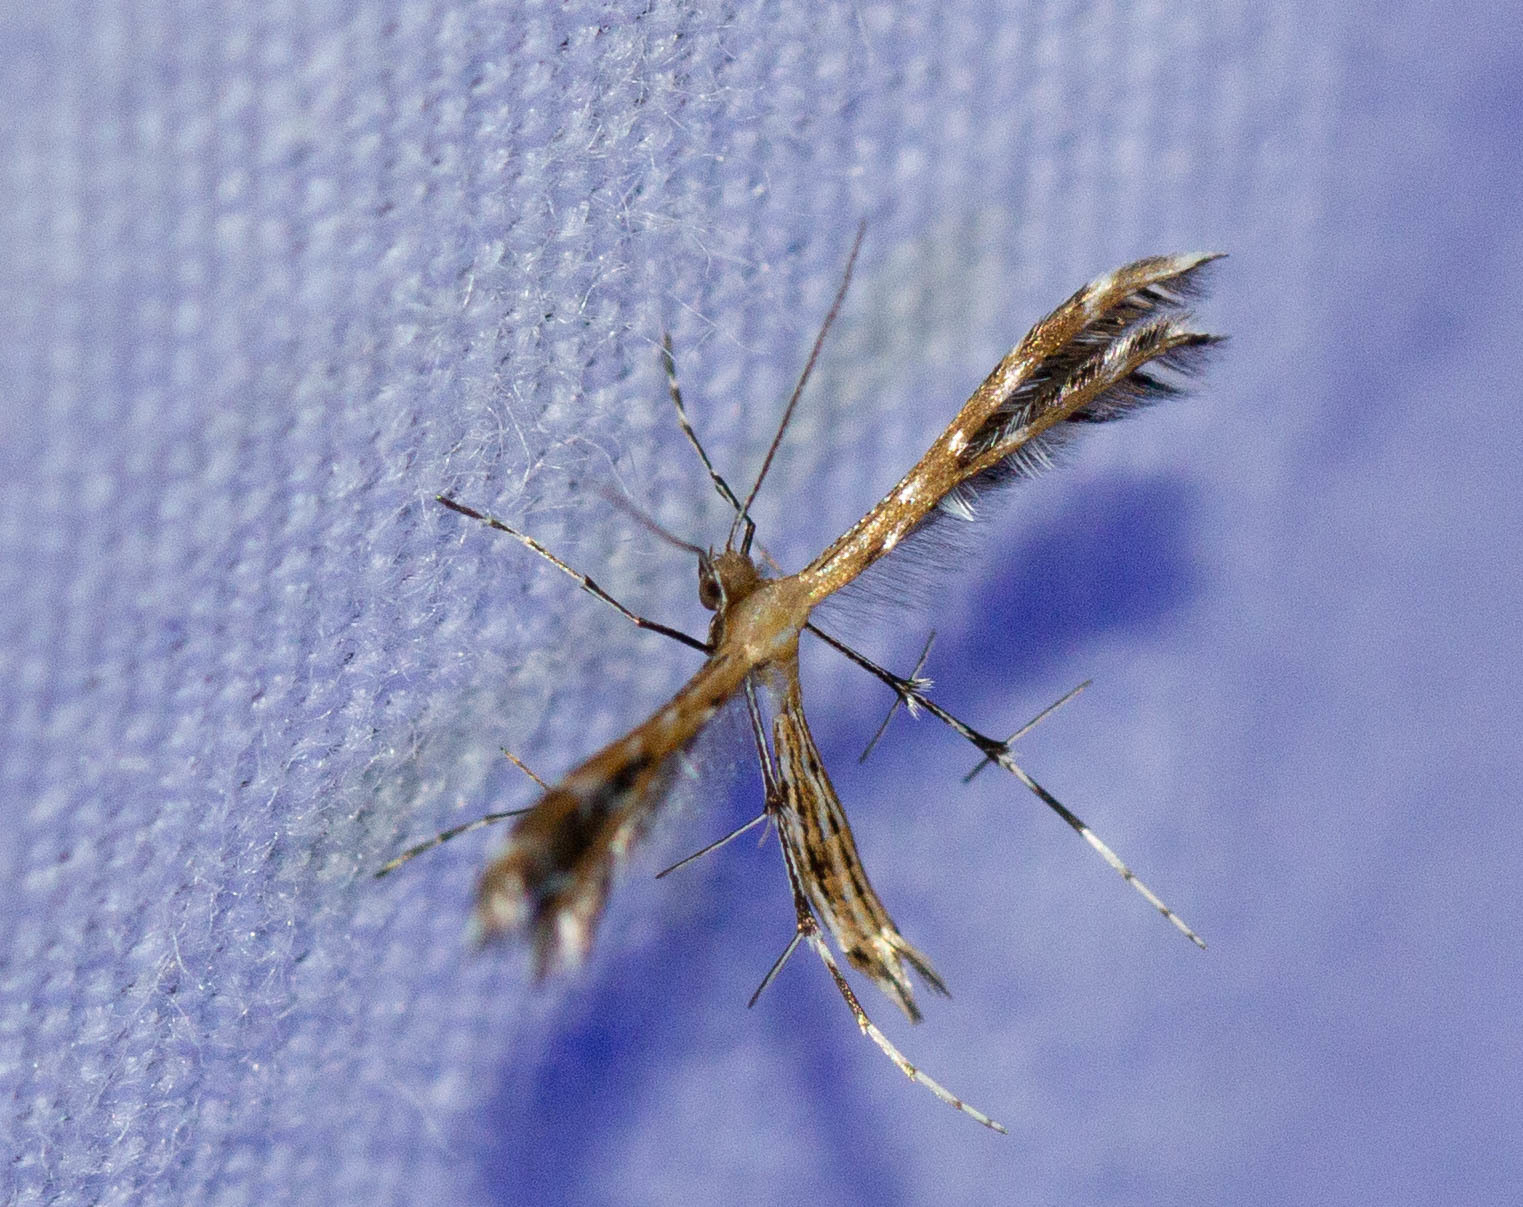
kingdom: Animalia
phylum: Arthropoda
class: Insecta
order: Lepidoptera
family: Pterophoridae
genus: Buckleria
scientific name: Buckleria parvulus
